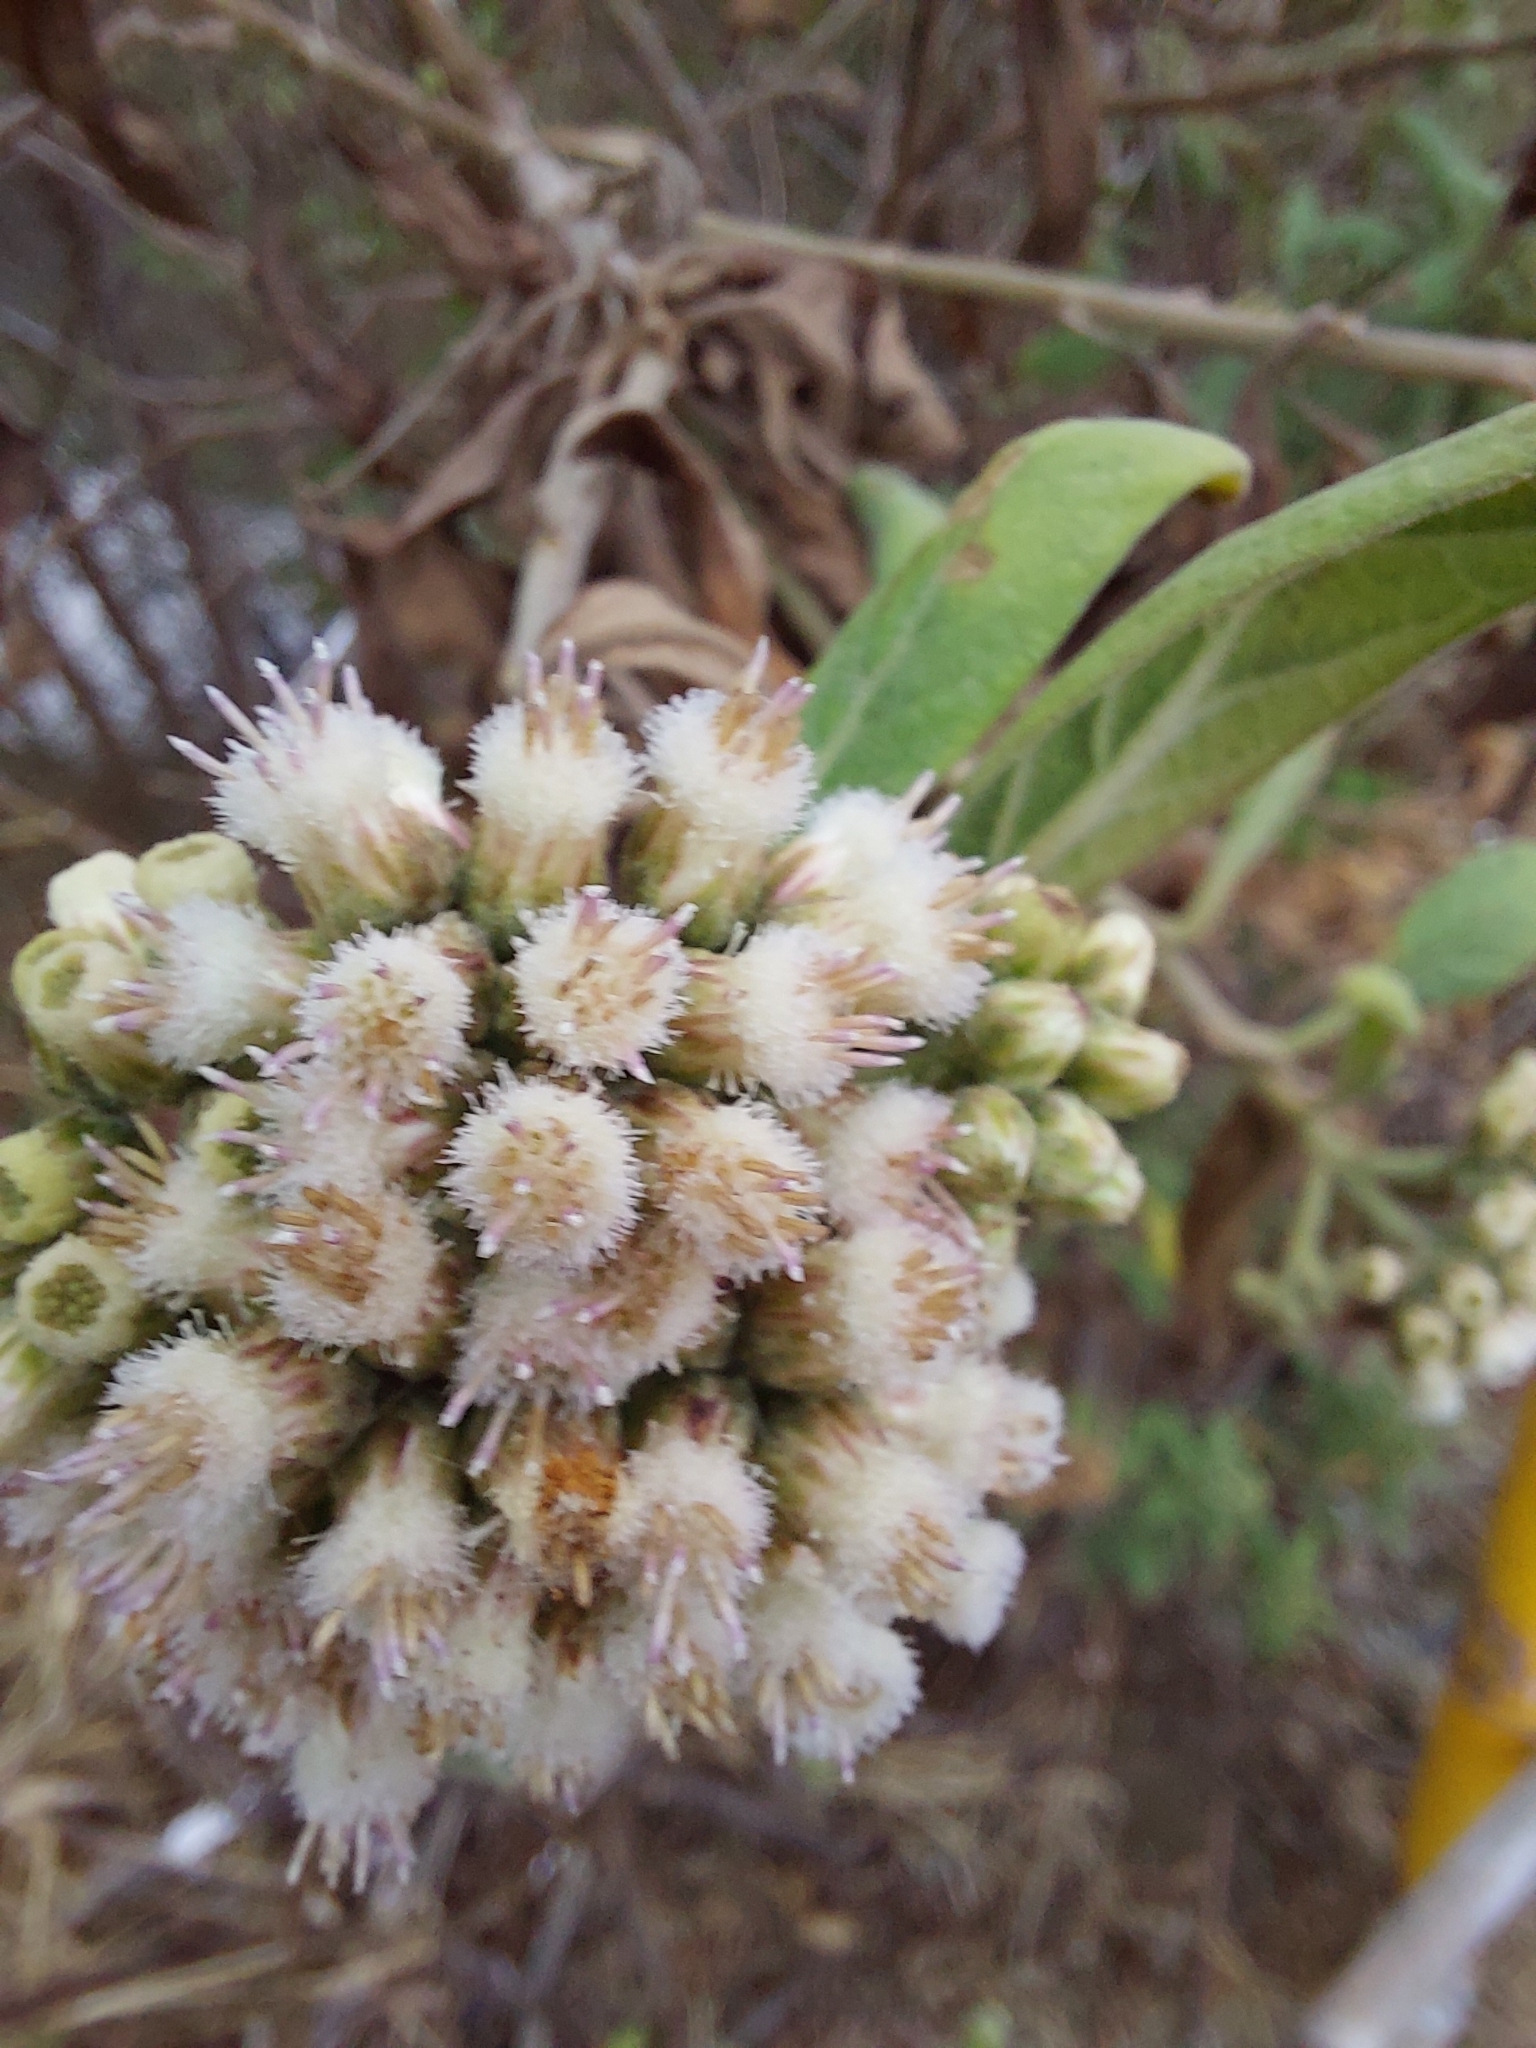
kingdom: Plantae
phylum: Tracheophyta
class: Magnoliopsida
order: Asterales
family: Asteraceae
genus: Pluchea
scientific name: Pluchea carolinensis
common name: Marsh fleabane
